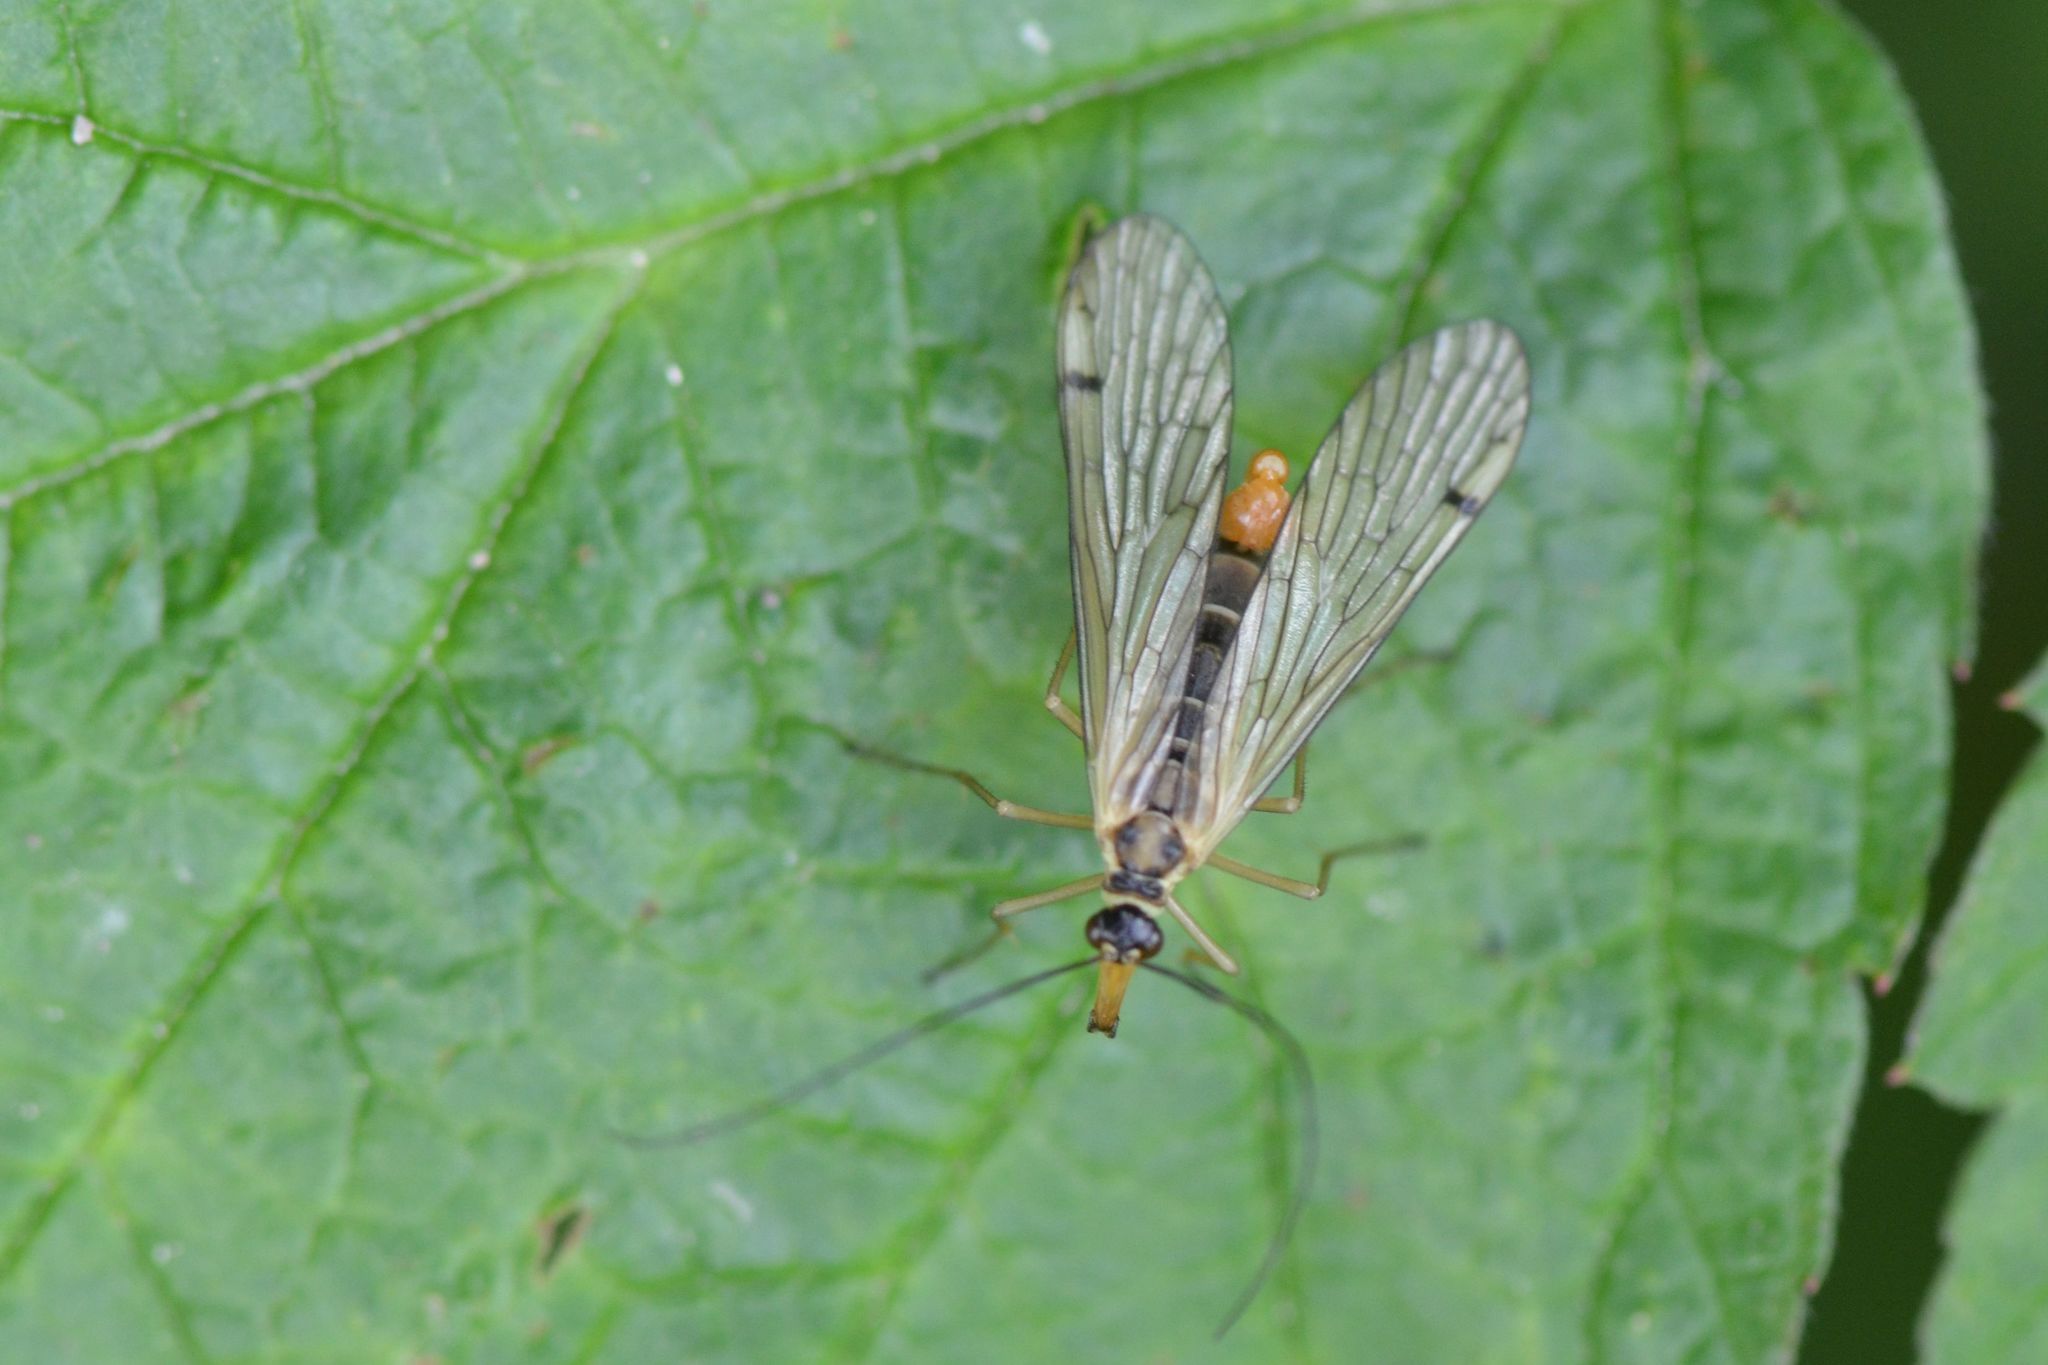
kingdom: Animalia
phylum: Arthropoda
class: Insecta
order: Mecoptera
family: Panorpidae
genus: Panorpa
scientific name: Panorpa alpina
